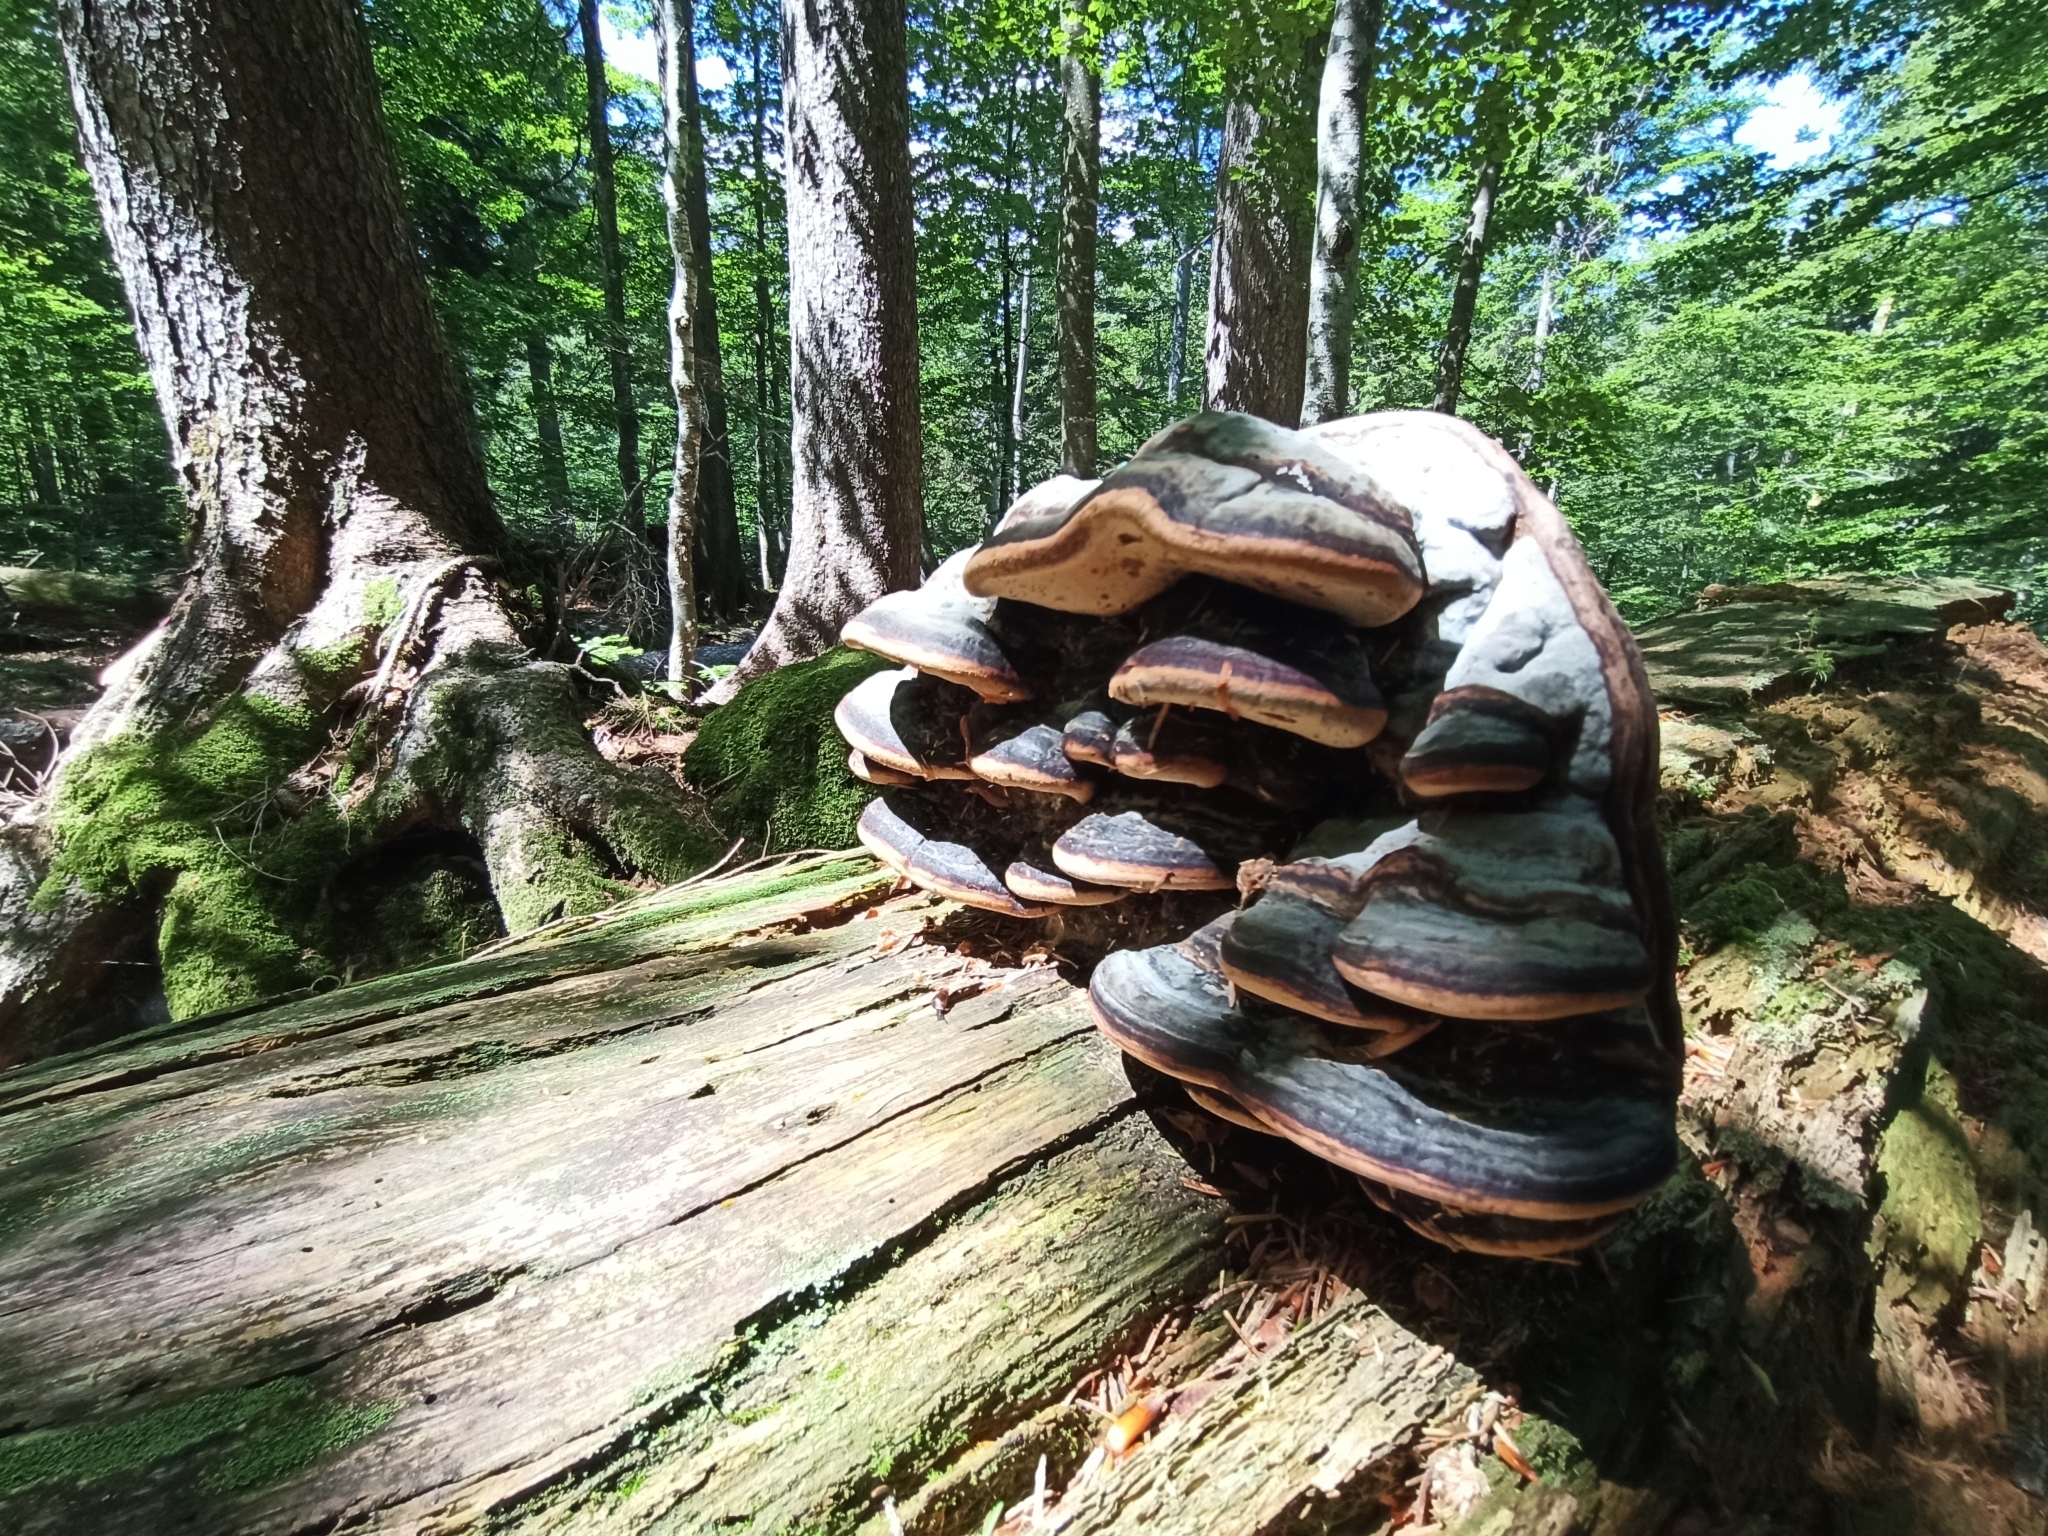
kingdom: Fungi
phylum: Basidiomycota
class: Agaricomycetes
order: Polyporales
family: Fomitopsidaceae
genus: Fomitopsis
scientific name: Fomitopsis pinicola
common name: Red-belted bracket
